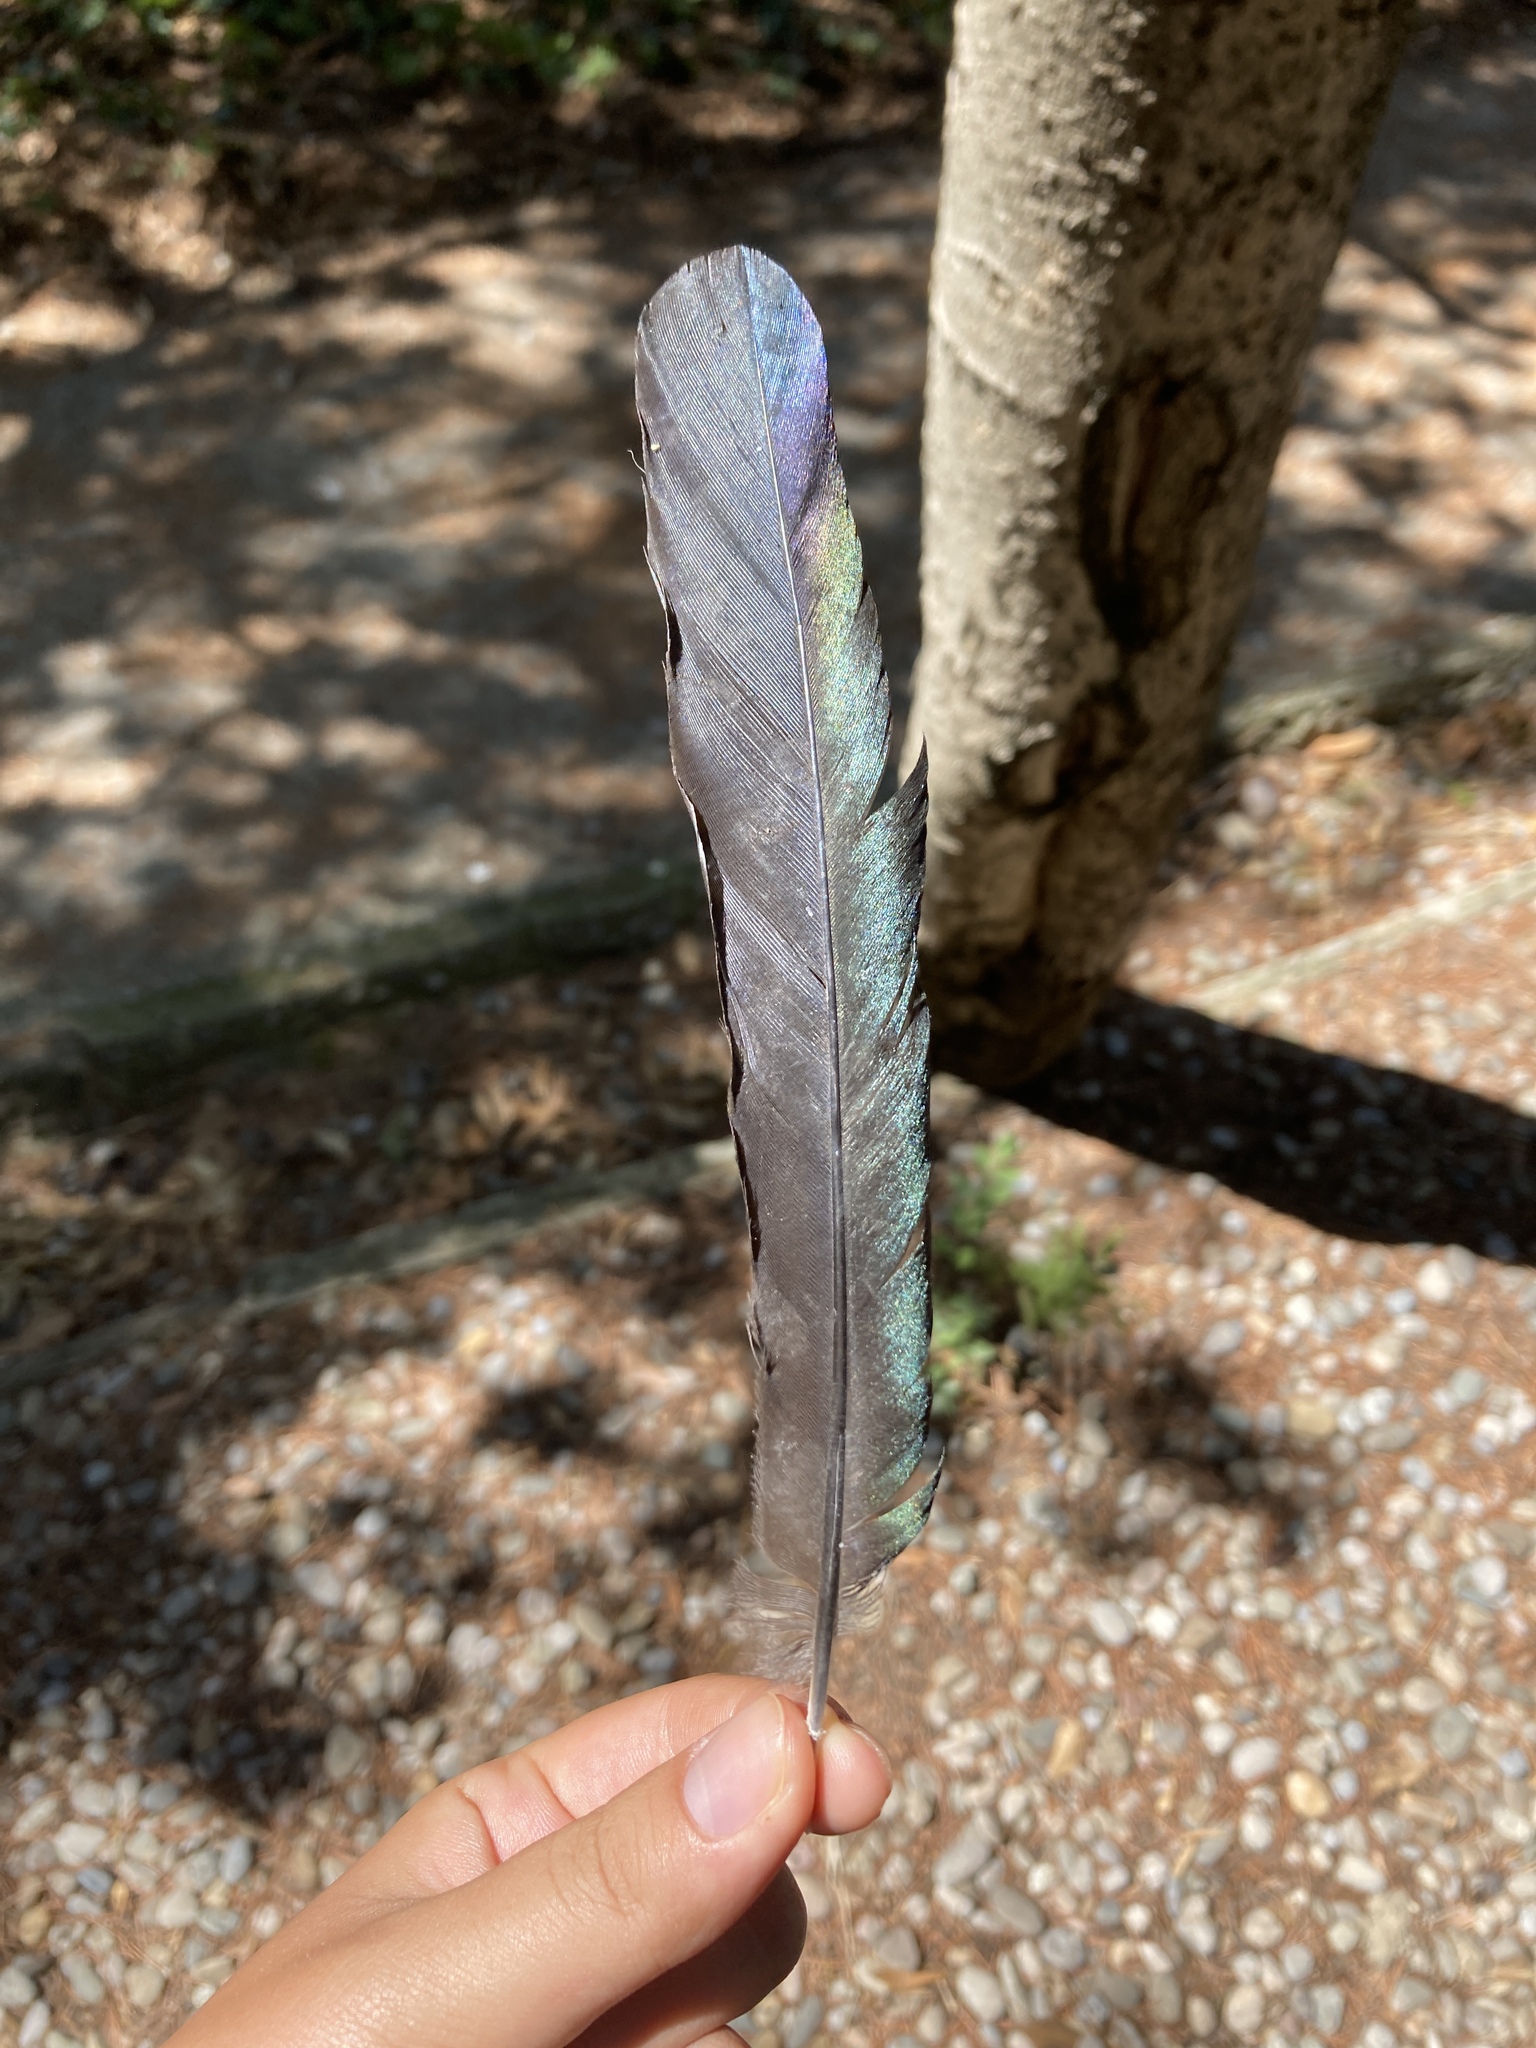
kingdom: Animalia
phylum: Chordata
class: Aves
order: Passeriformes
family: Corvidae
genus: Pica
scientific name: Pica pica
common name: Eurasian magpie
